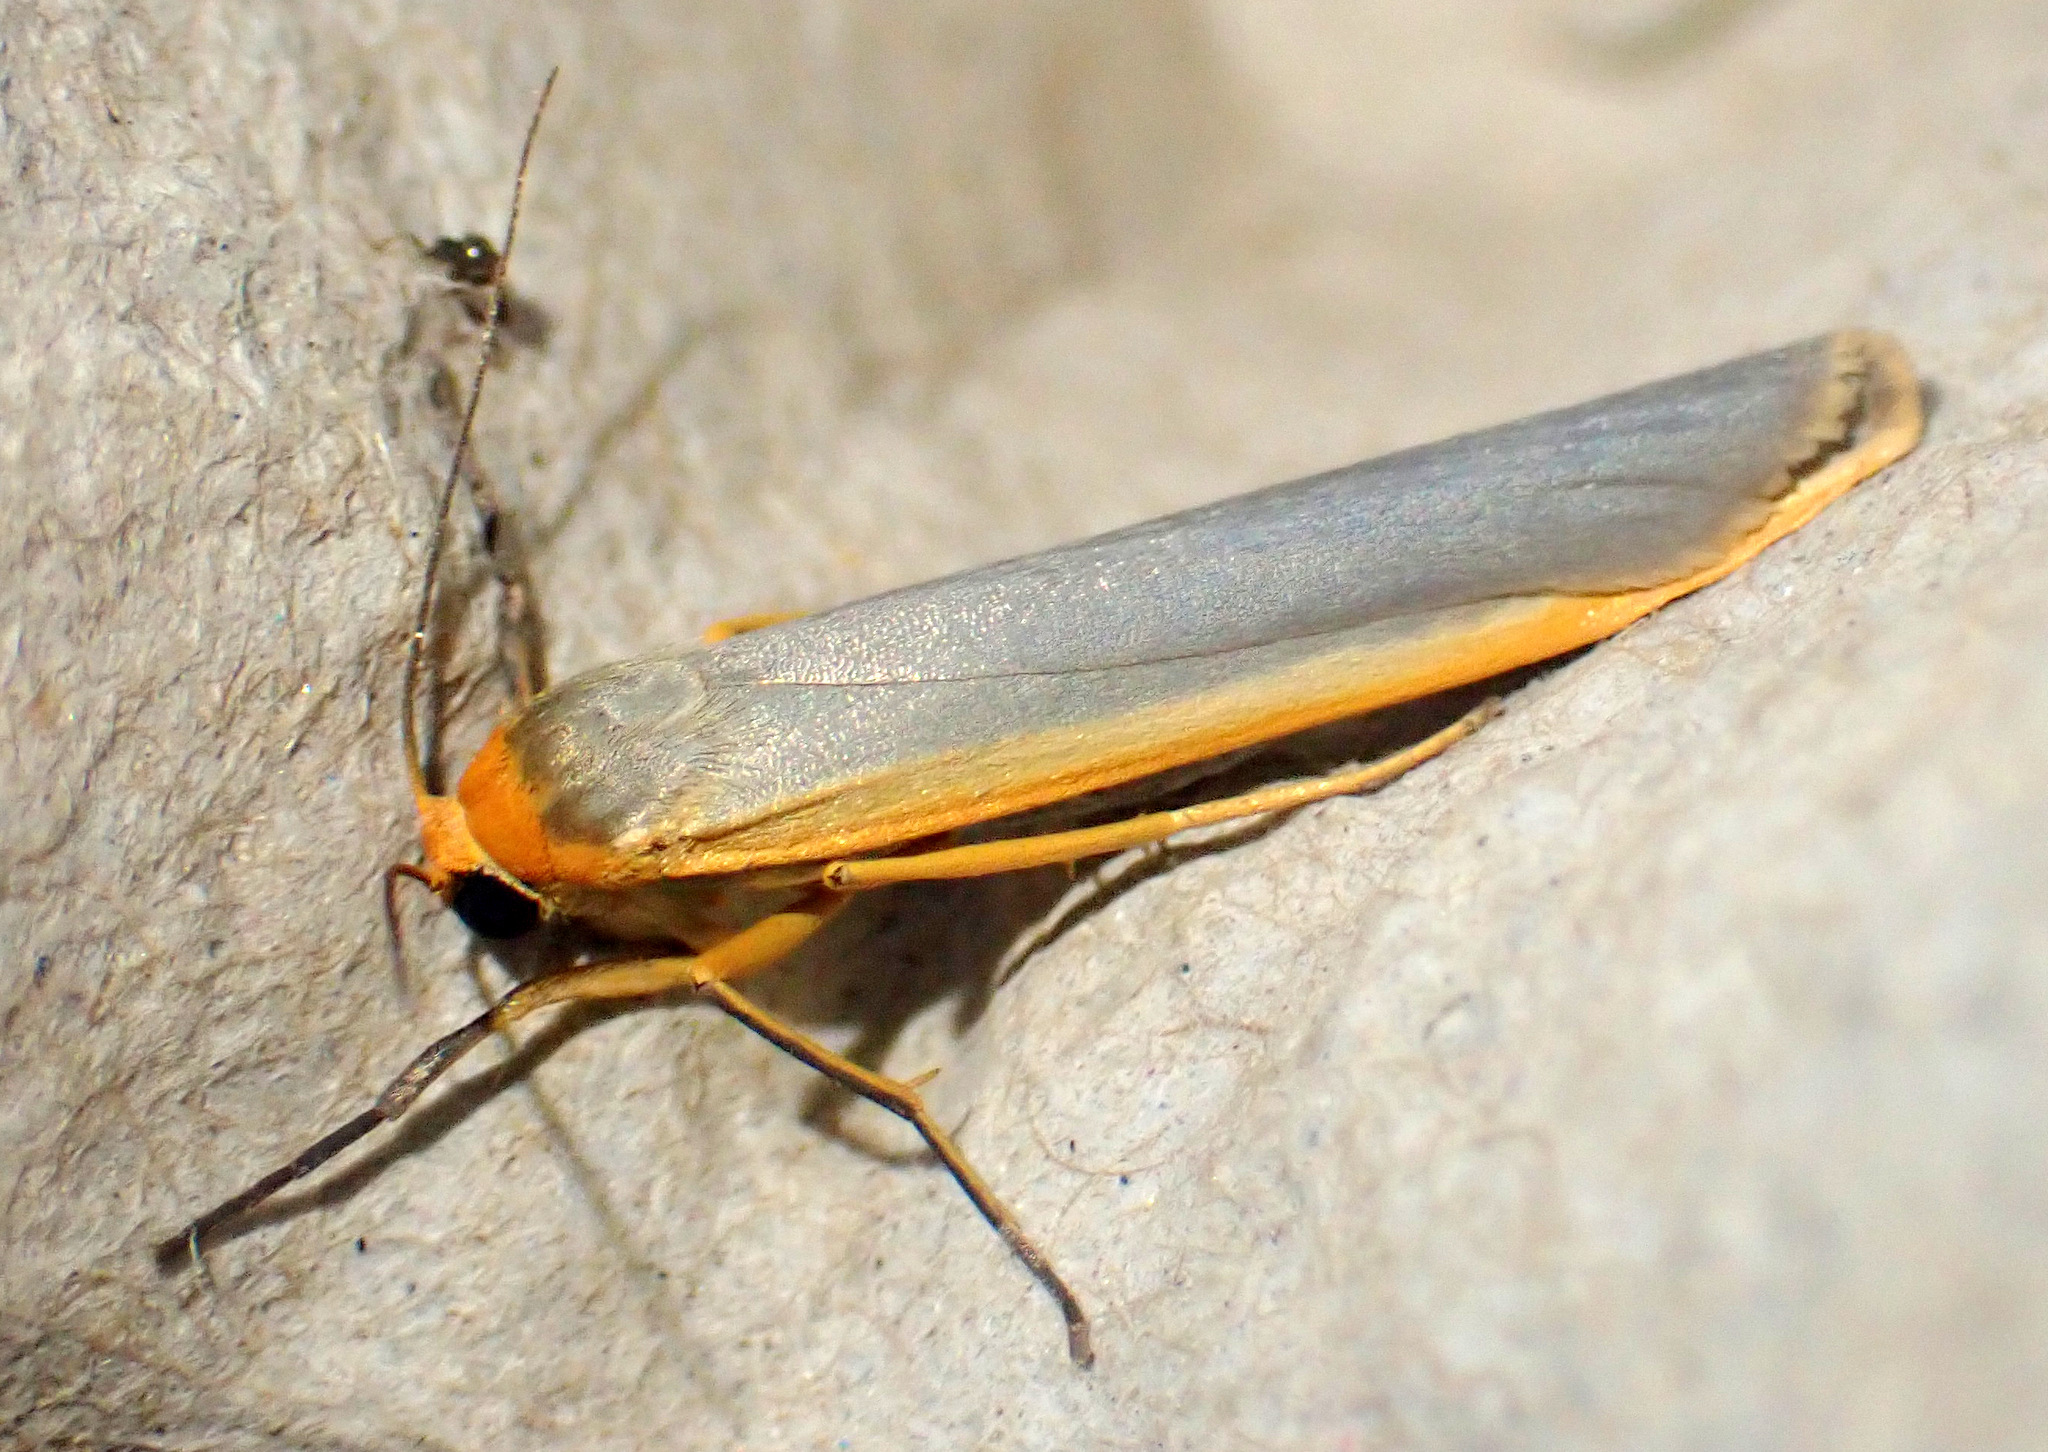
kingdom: Animalia
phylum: Arthropoda
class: Insecta
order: Lepidoptera
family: Erebidae
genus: Manulea
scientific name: Manulea complana
